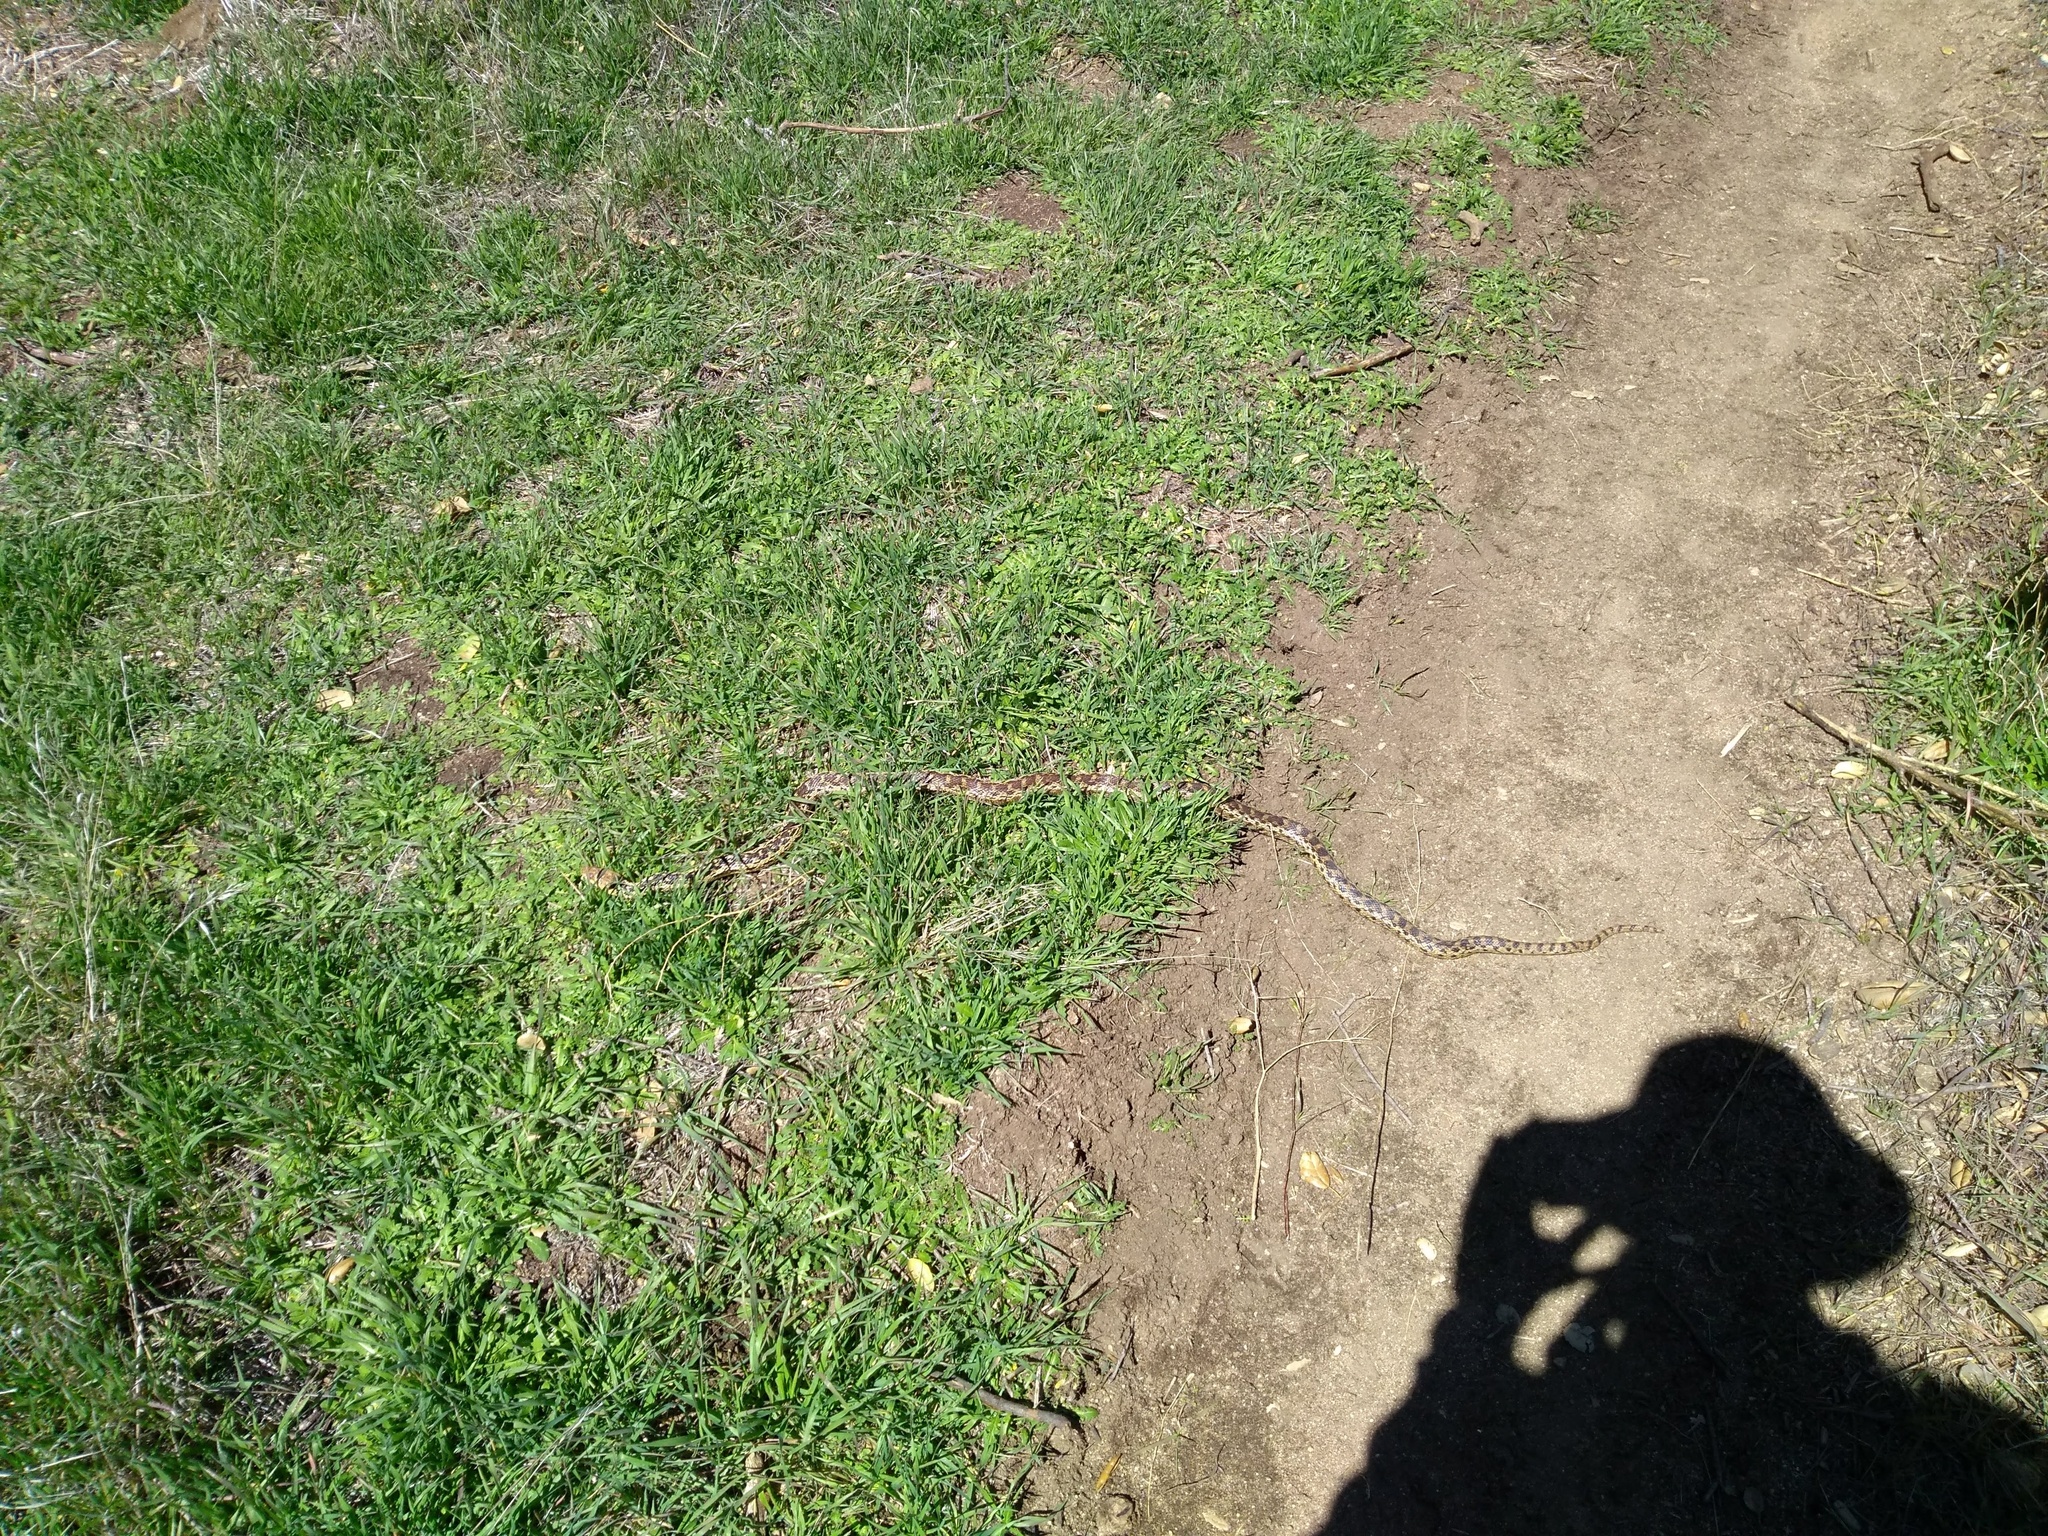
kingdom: Animalia
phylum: Chordata
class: Squamata
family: Colubridae
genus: Pituophis
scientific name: Pituophis catenifer
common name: Gopher snake
